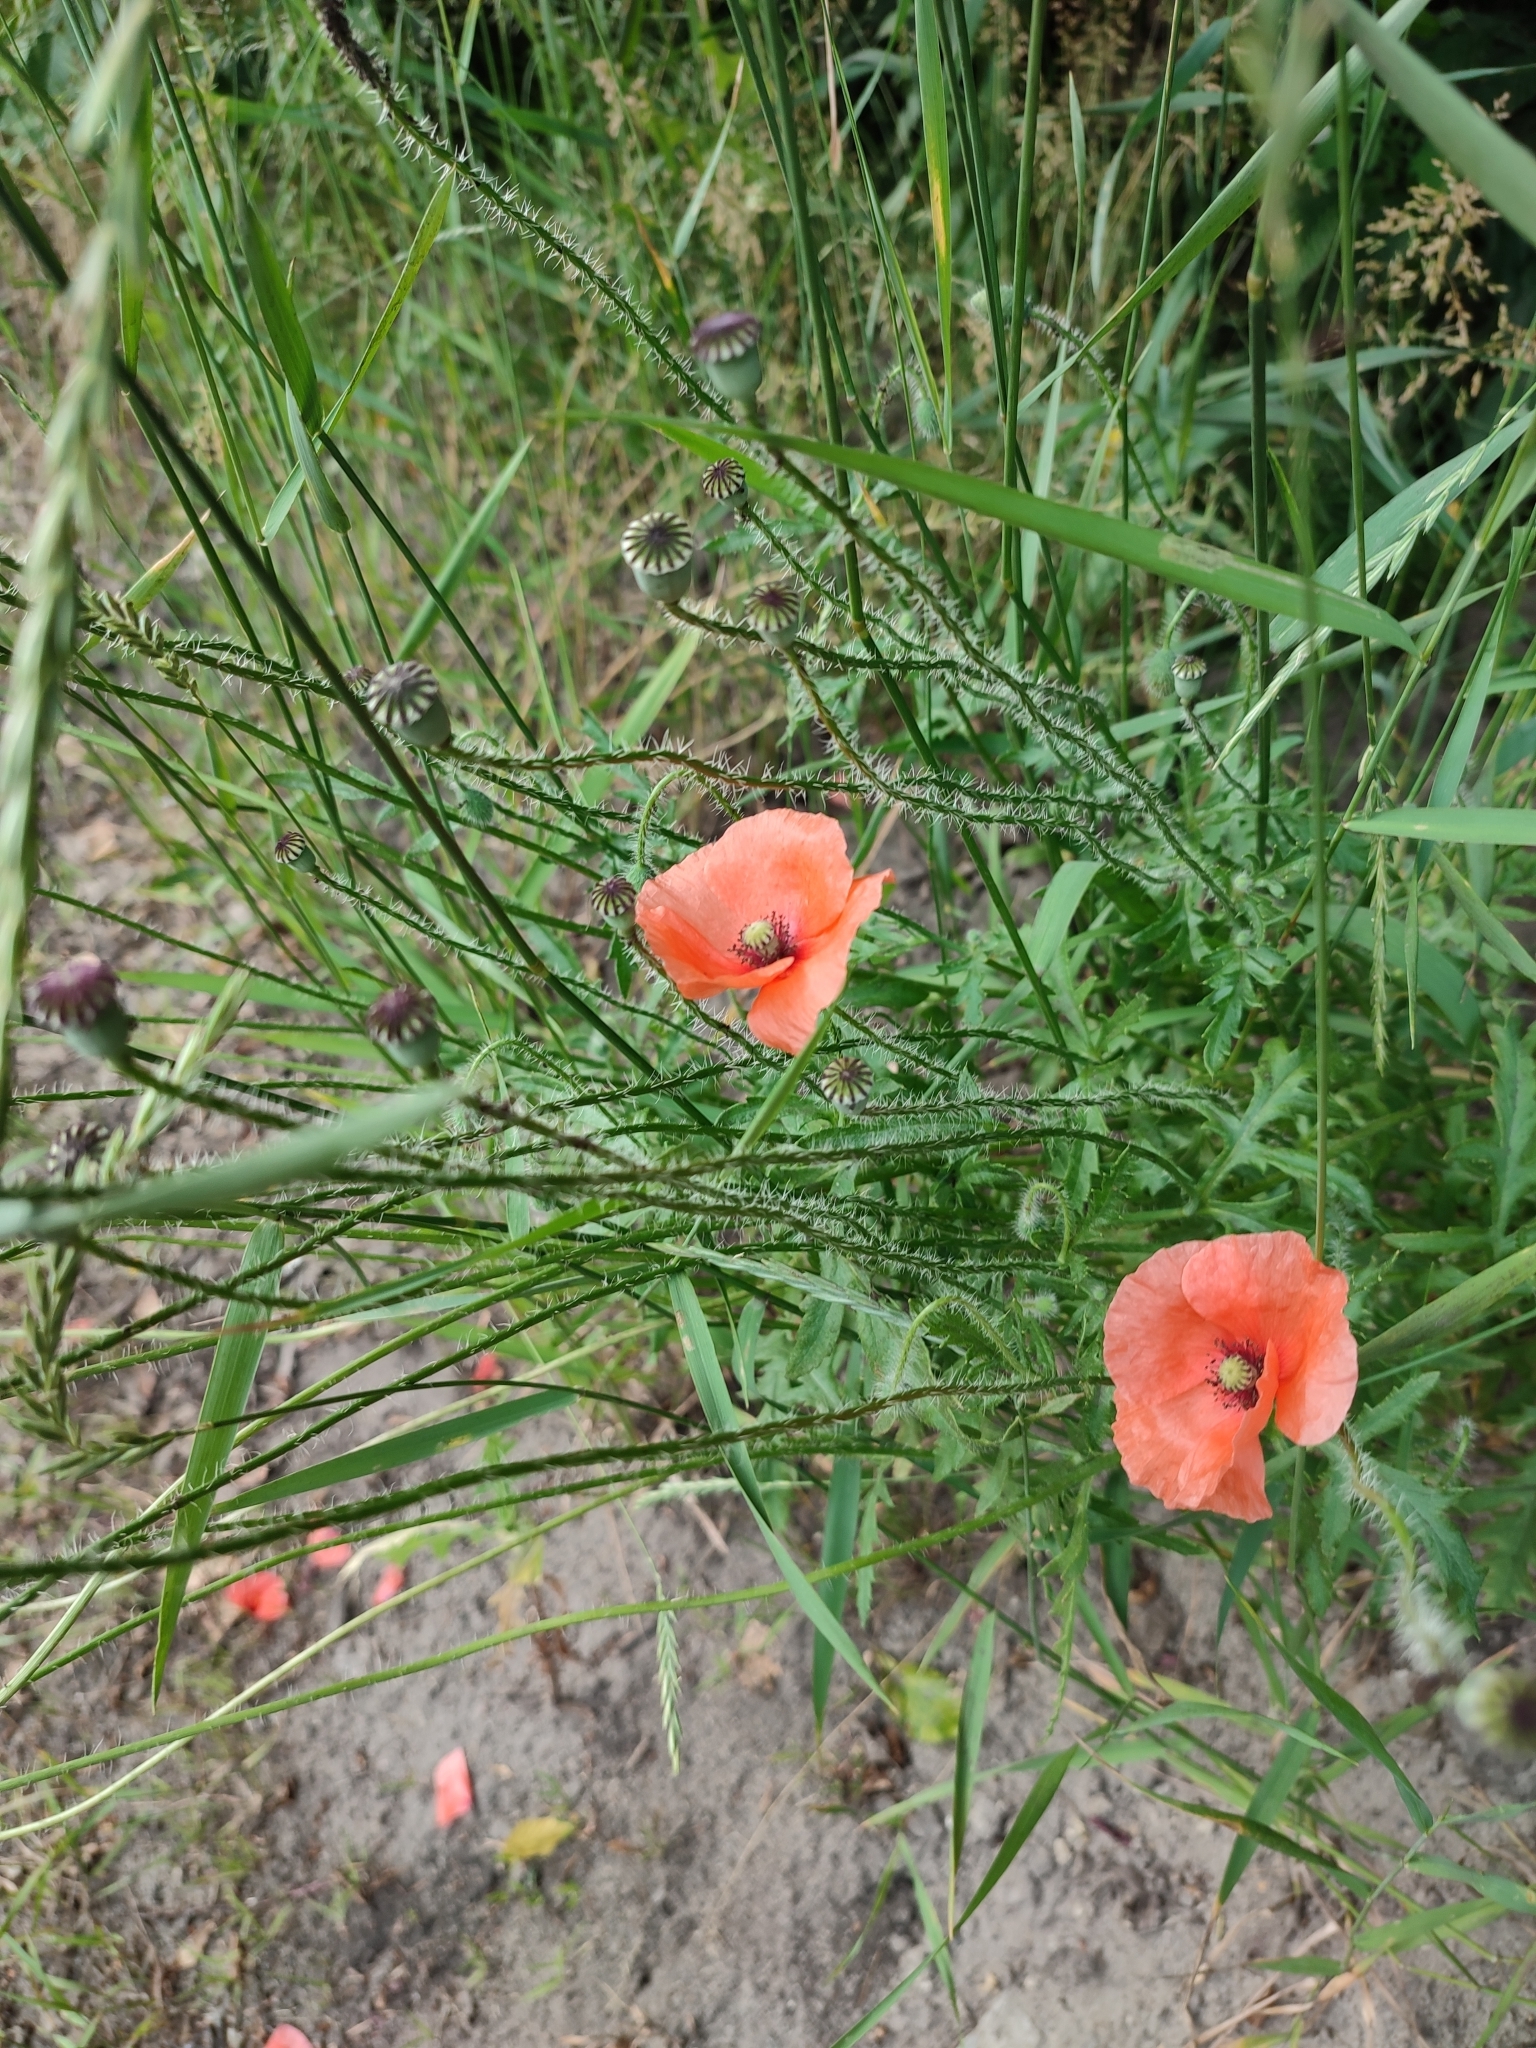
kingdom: Plantae
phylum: Tracheophyta
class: Magnoliopsida
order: Ranunculales
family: Papaveraceae
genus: Papaver
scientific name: Papaver rhoeas
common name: Corn poppy
